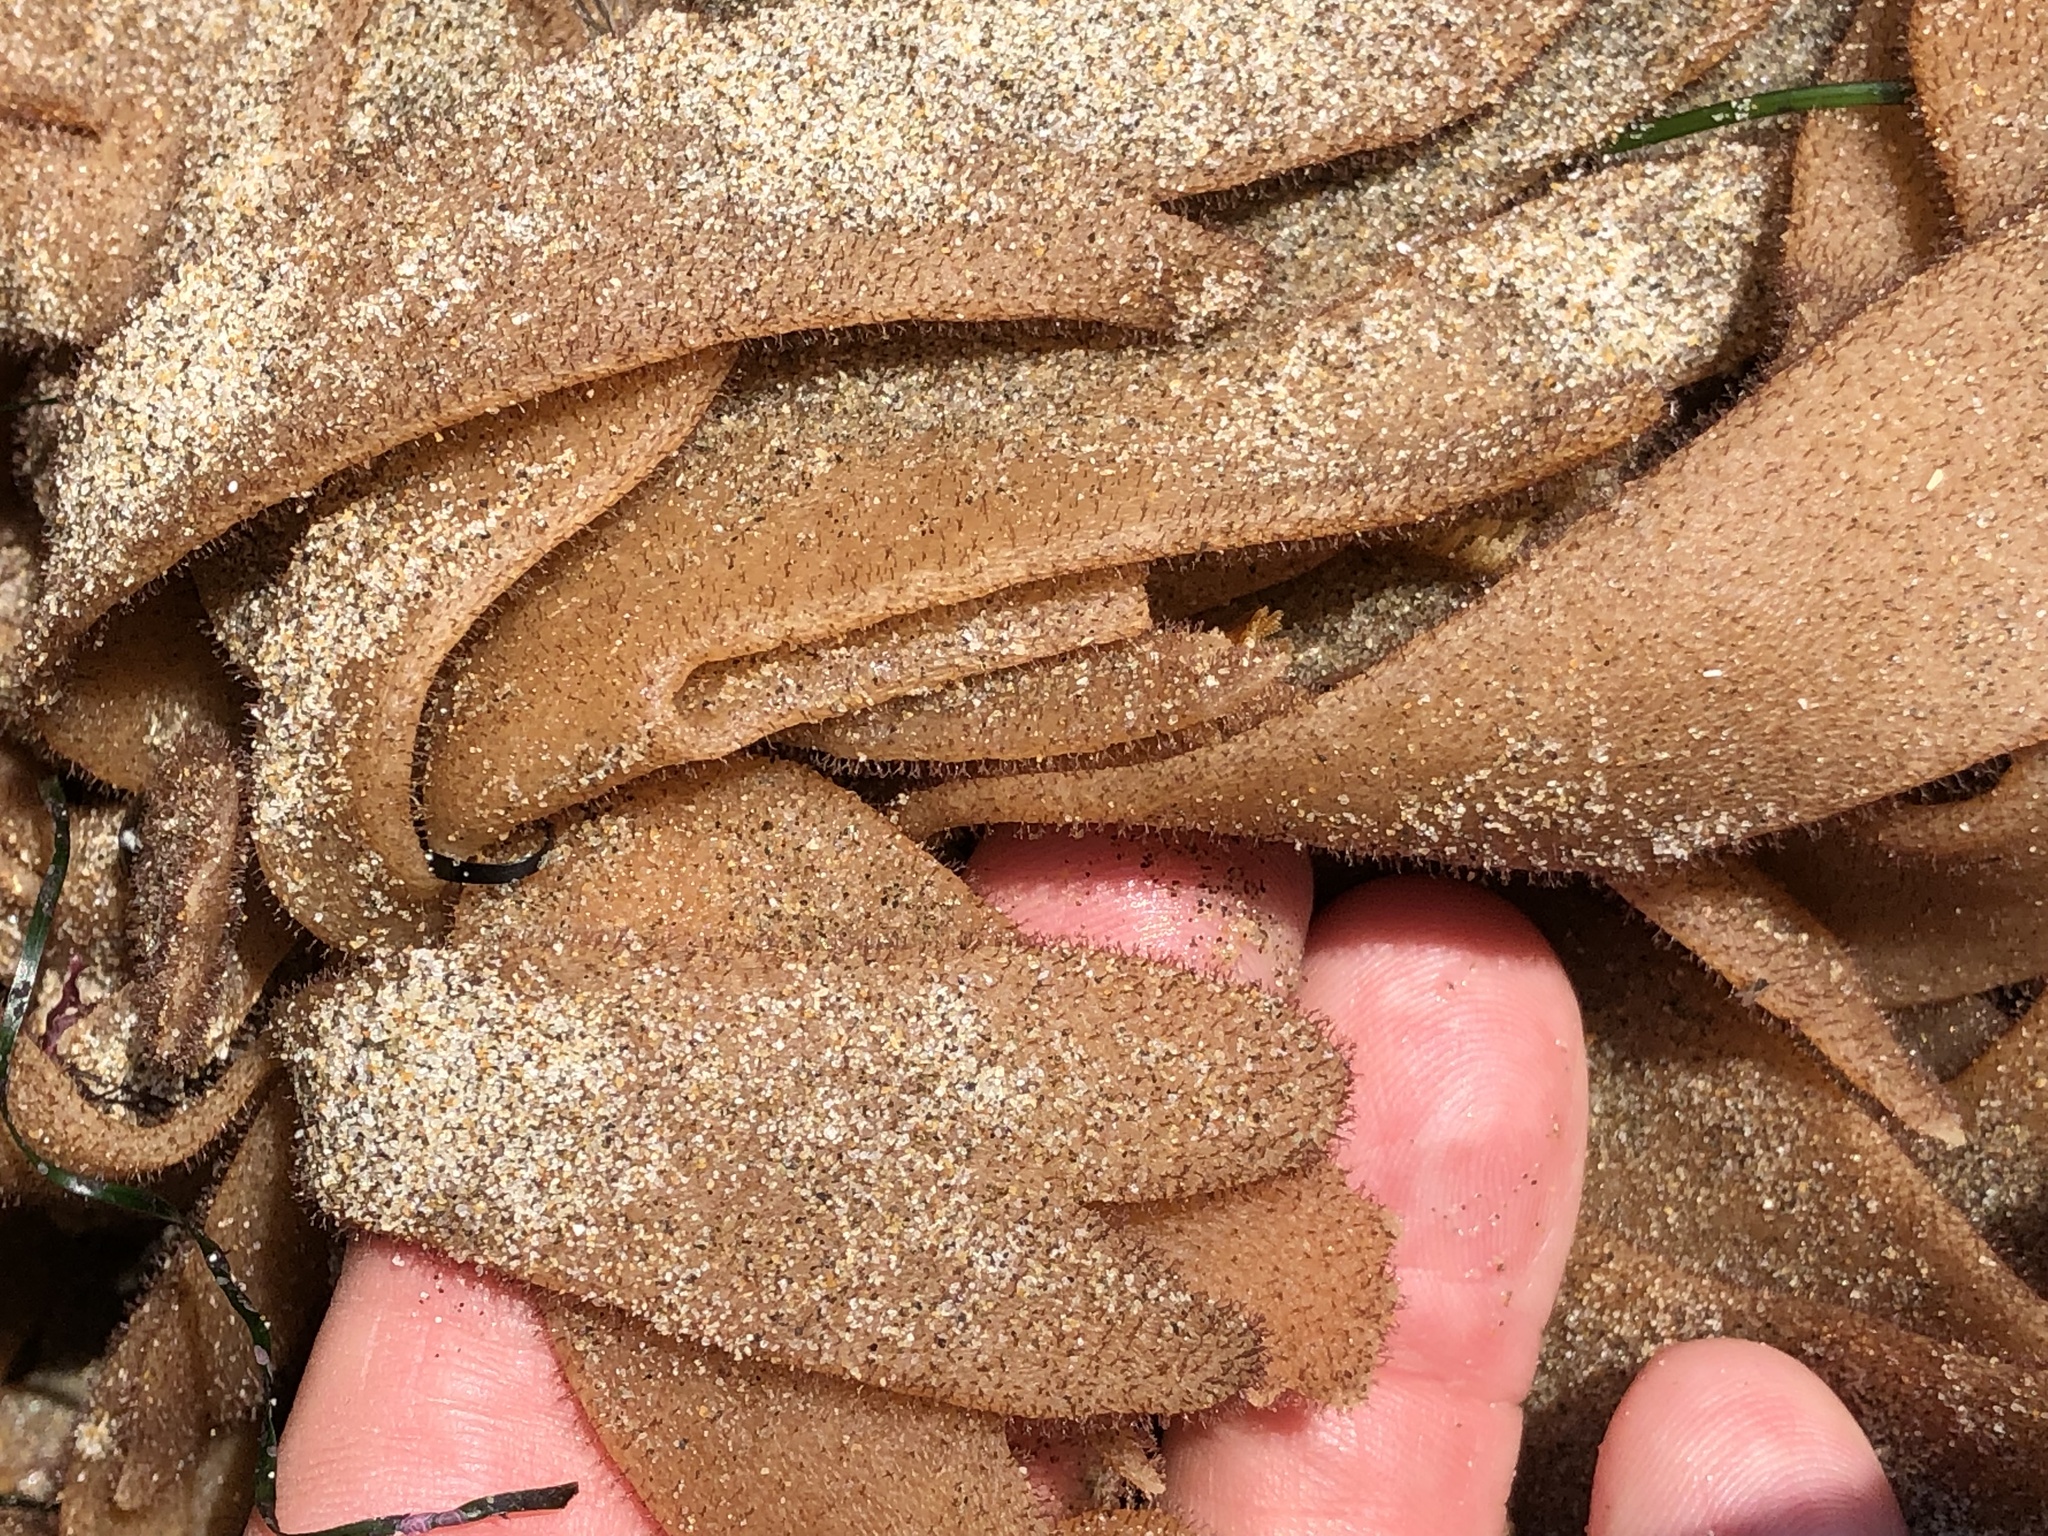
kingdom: Animalia
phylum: Bryozoa
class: Gymnolaemata
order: Ctenostomatida
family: Flustrellidridae
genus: Flustrellidra
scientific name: Flustrellidra corniculata
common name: Spiny leather bryozoan
